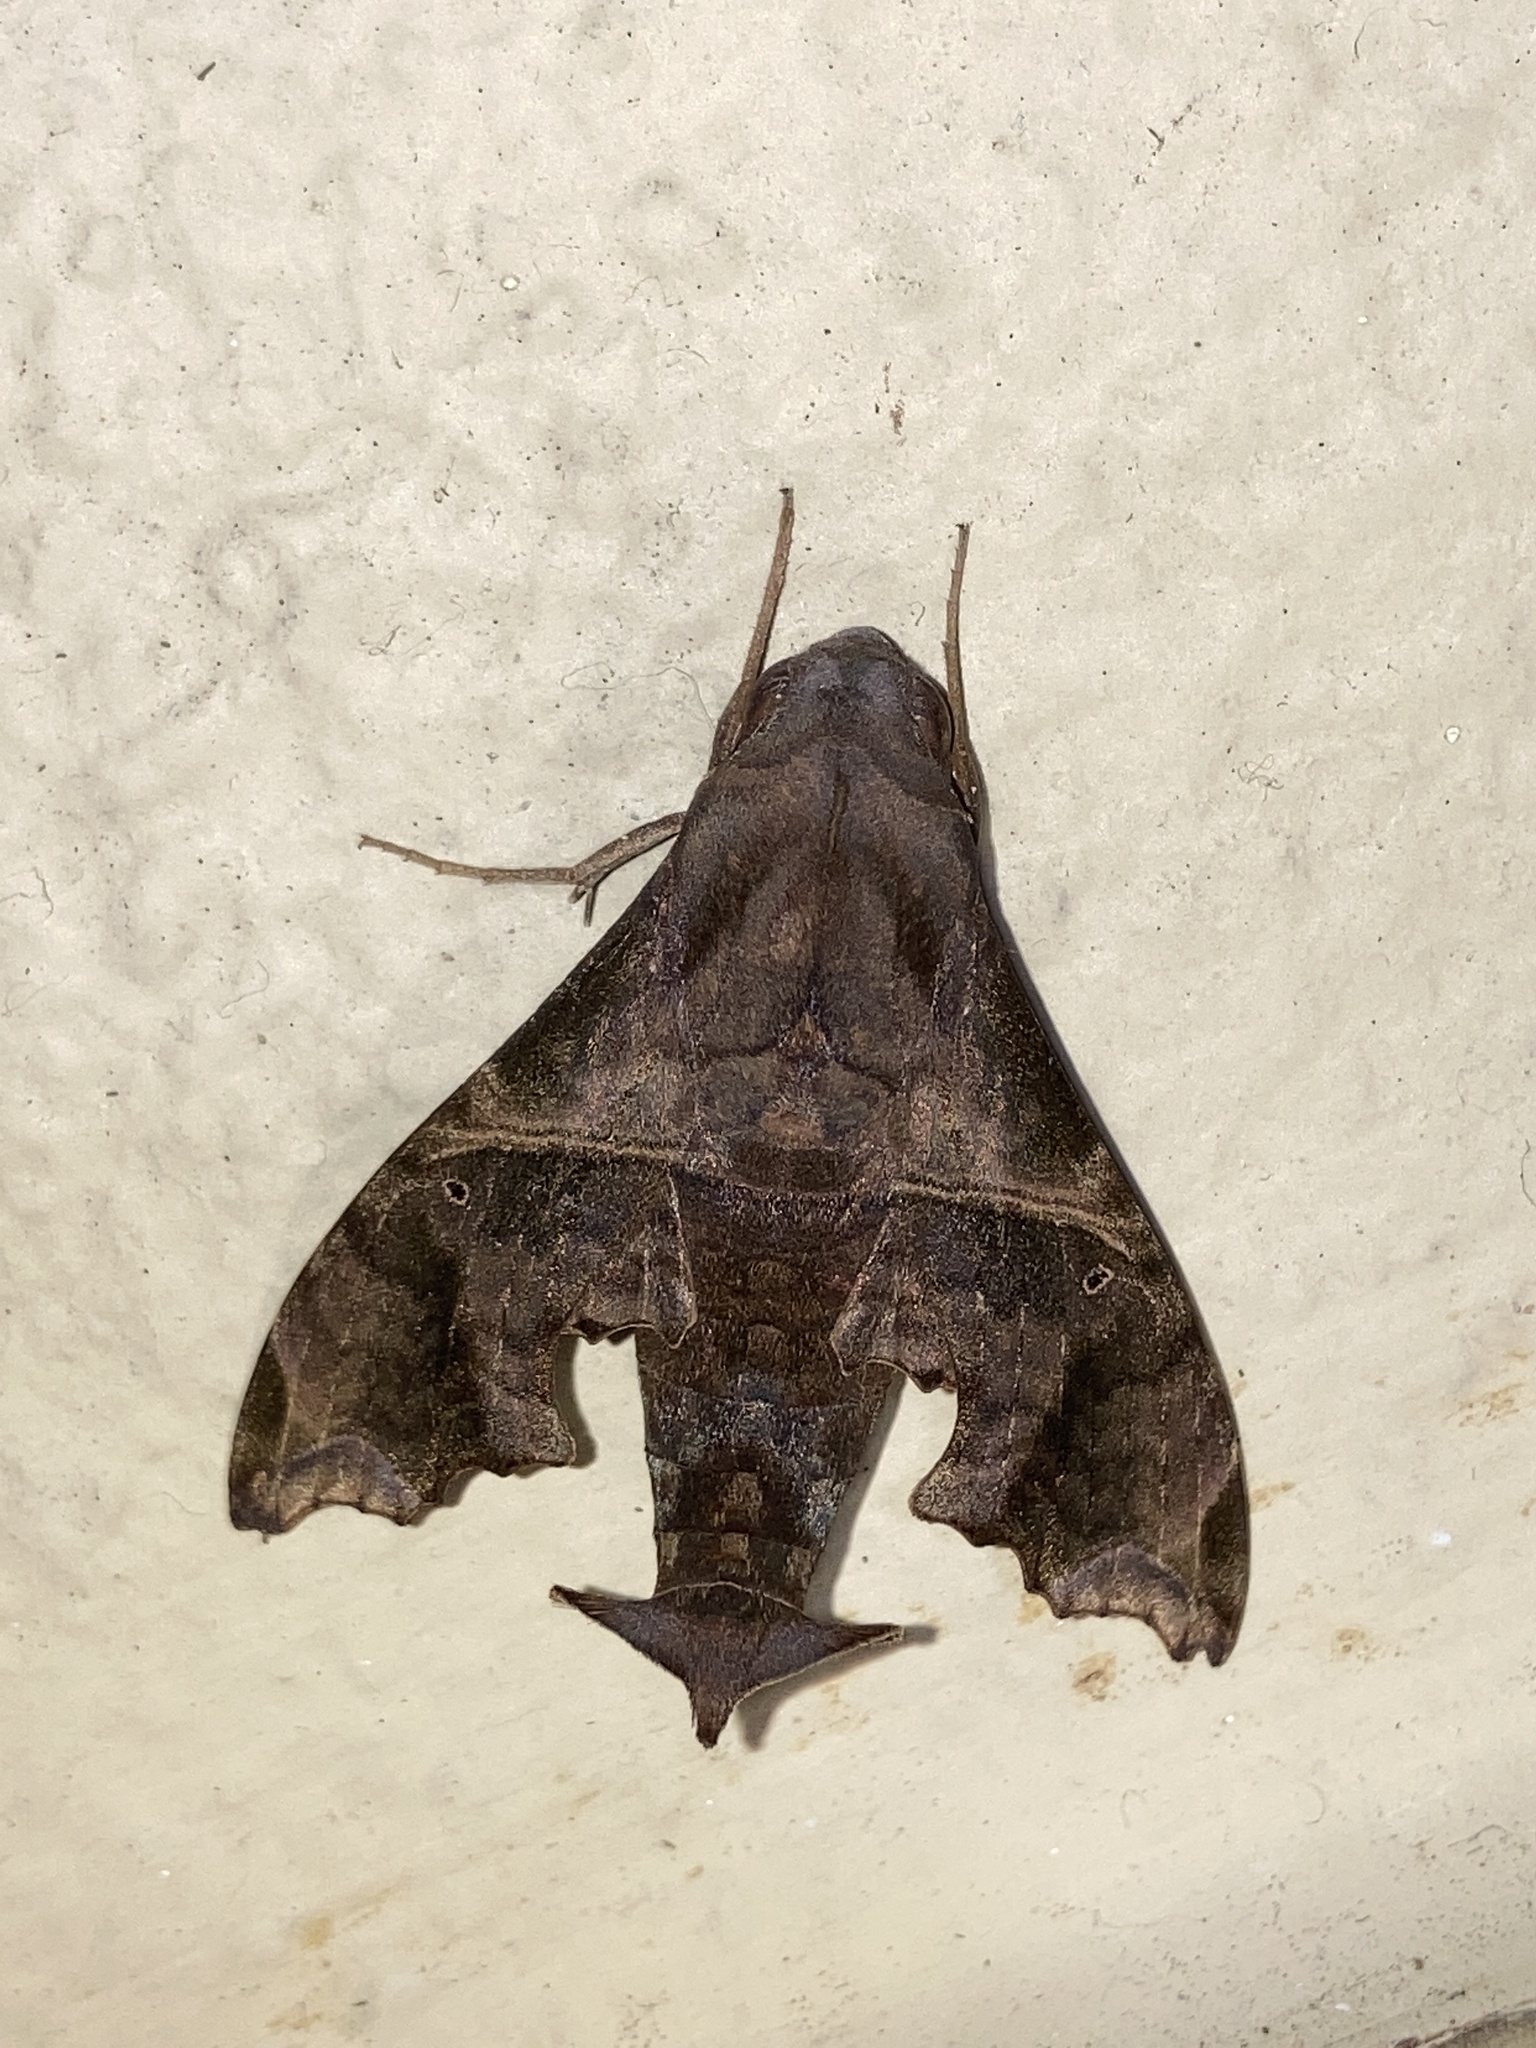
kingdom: Animalia
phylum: Arthropoda
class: Insecta
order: Lepidoptera
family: Sphingidae
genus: Enyo
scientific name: Enyo lugubris
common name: Mournful sphinx
